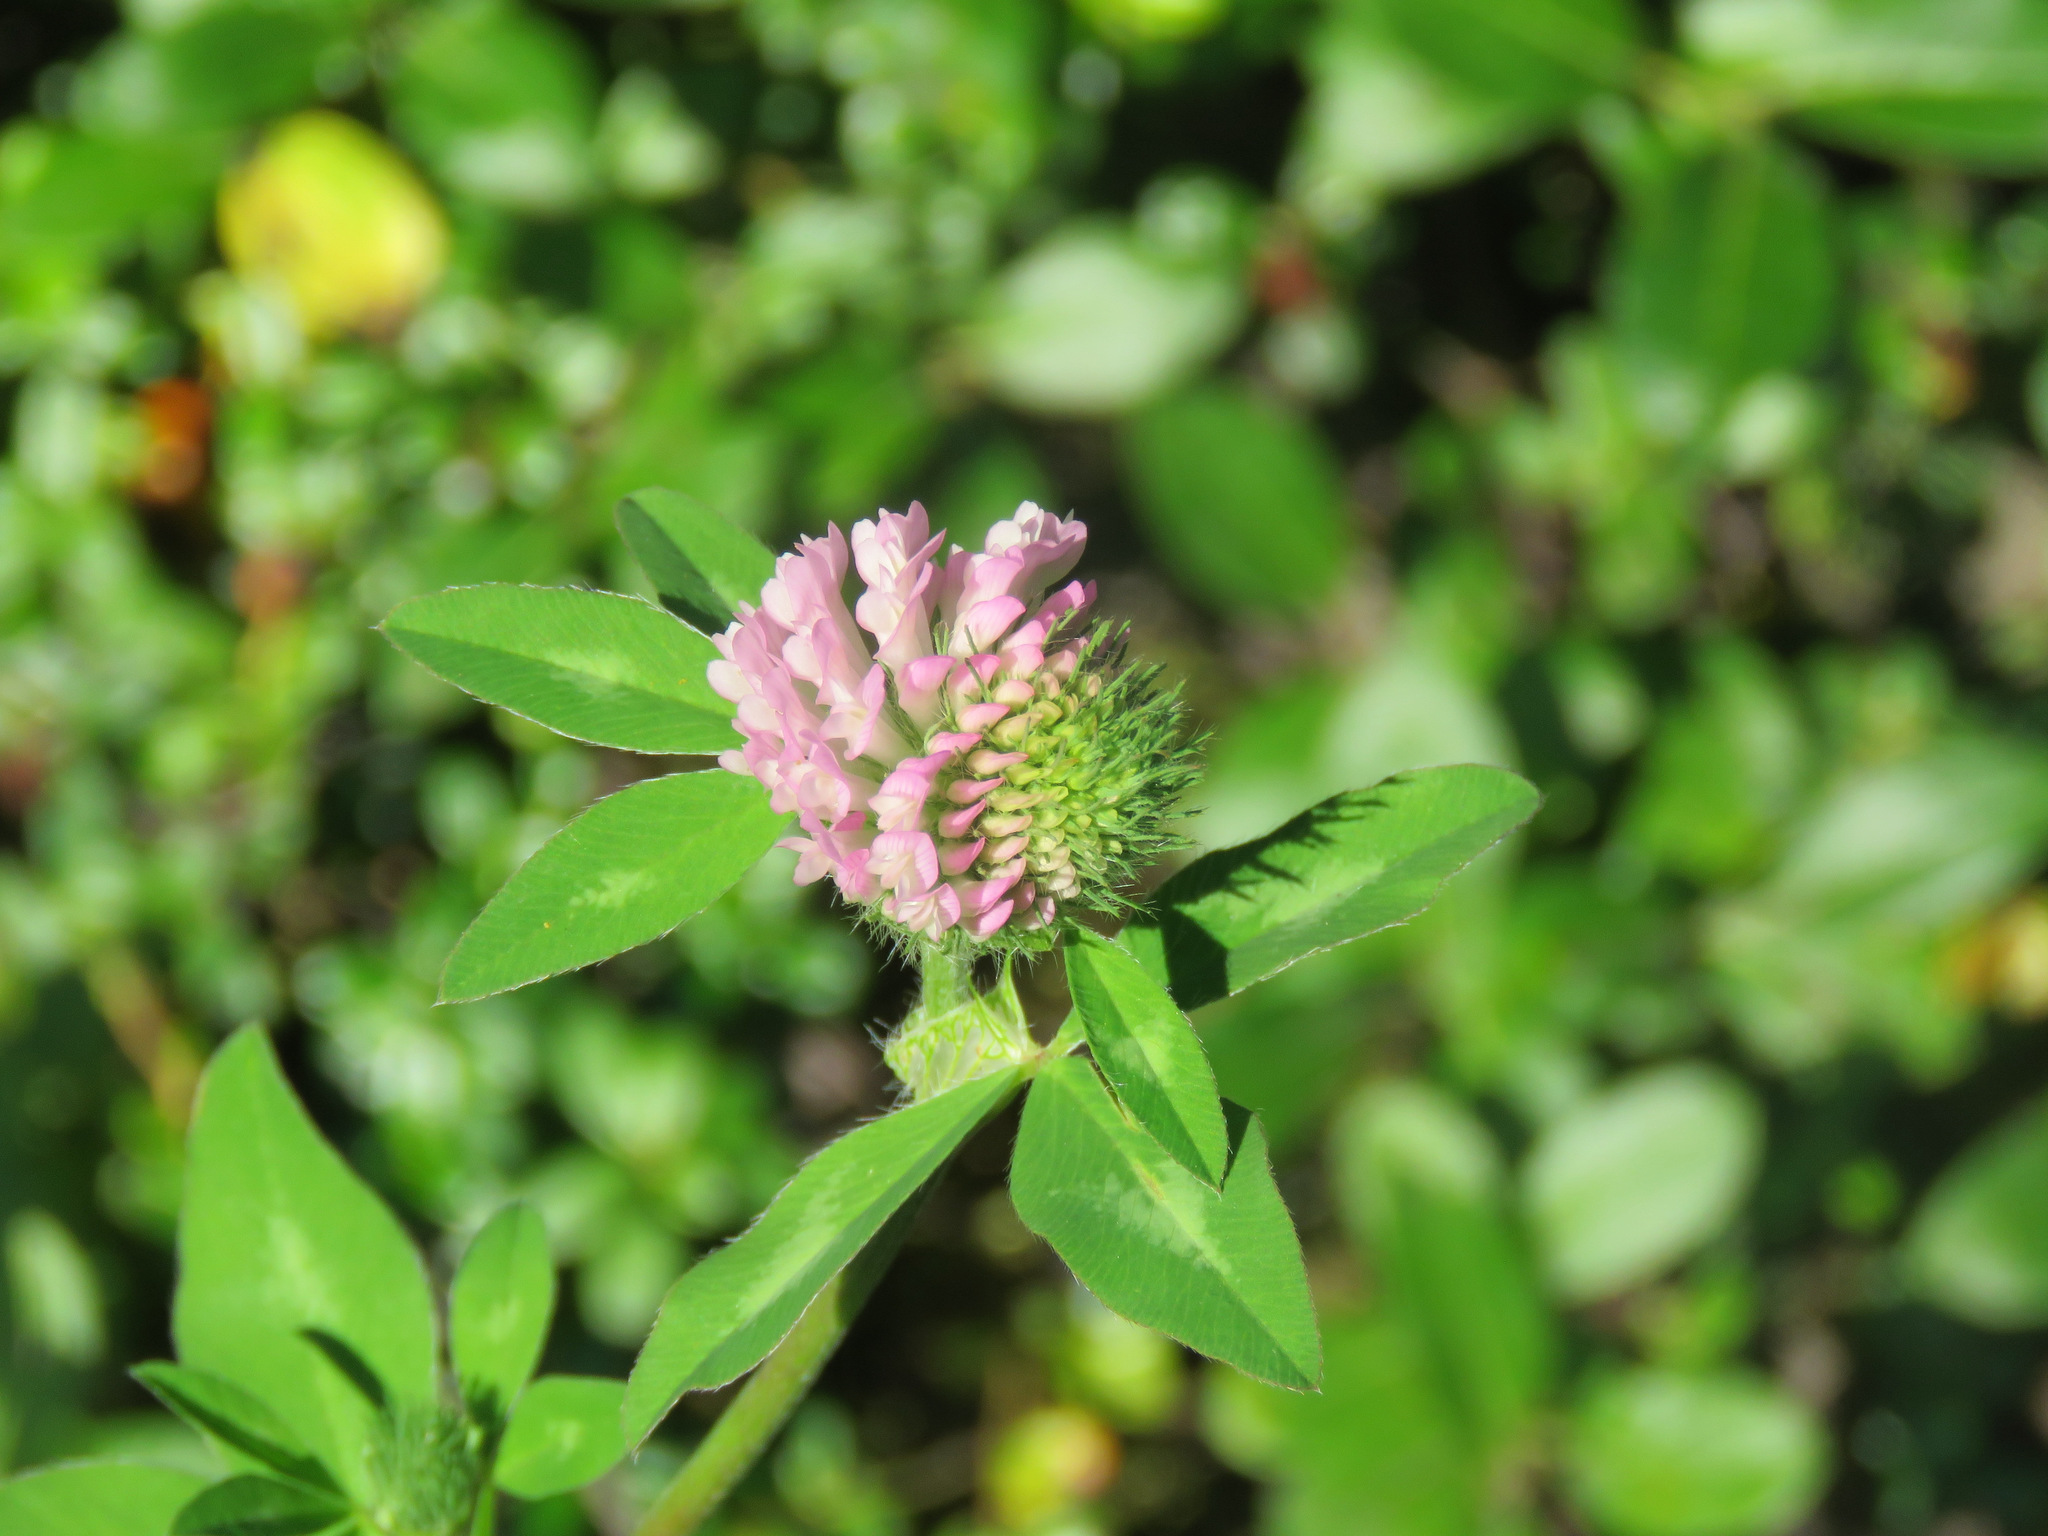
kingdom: Plantae
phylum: Tracheophyta
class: Magnoliopsida
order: Fabales
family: Fabaceae
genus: Trifolium
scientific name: Trifolium pratense
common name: Red clover
